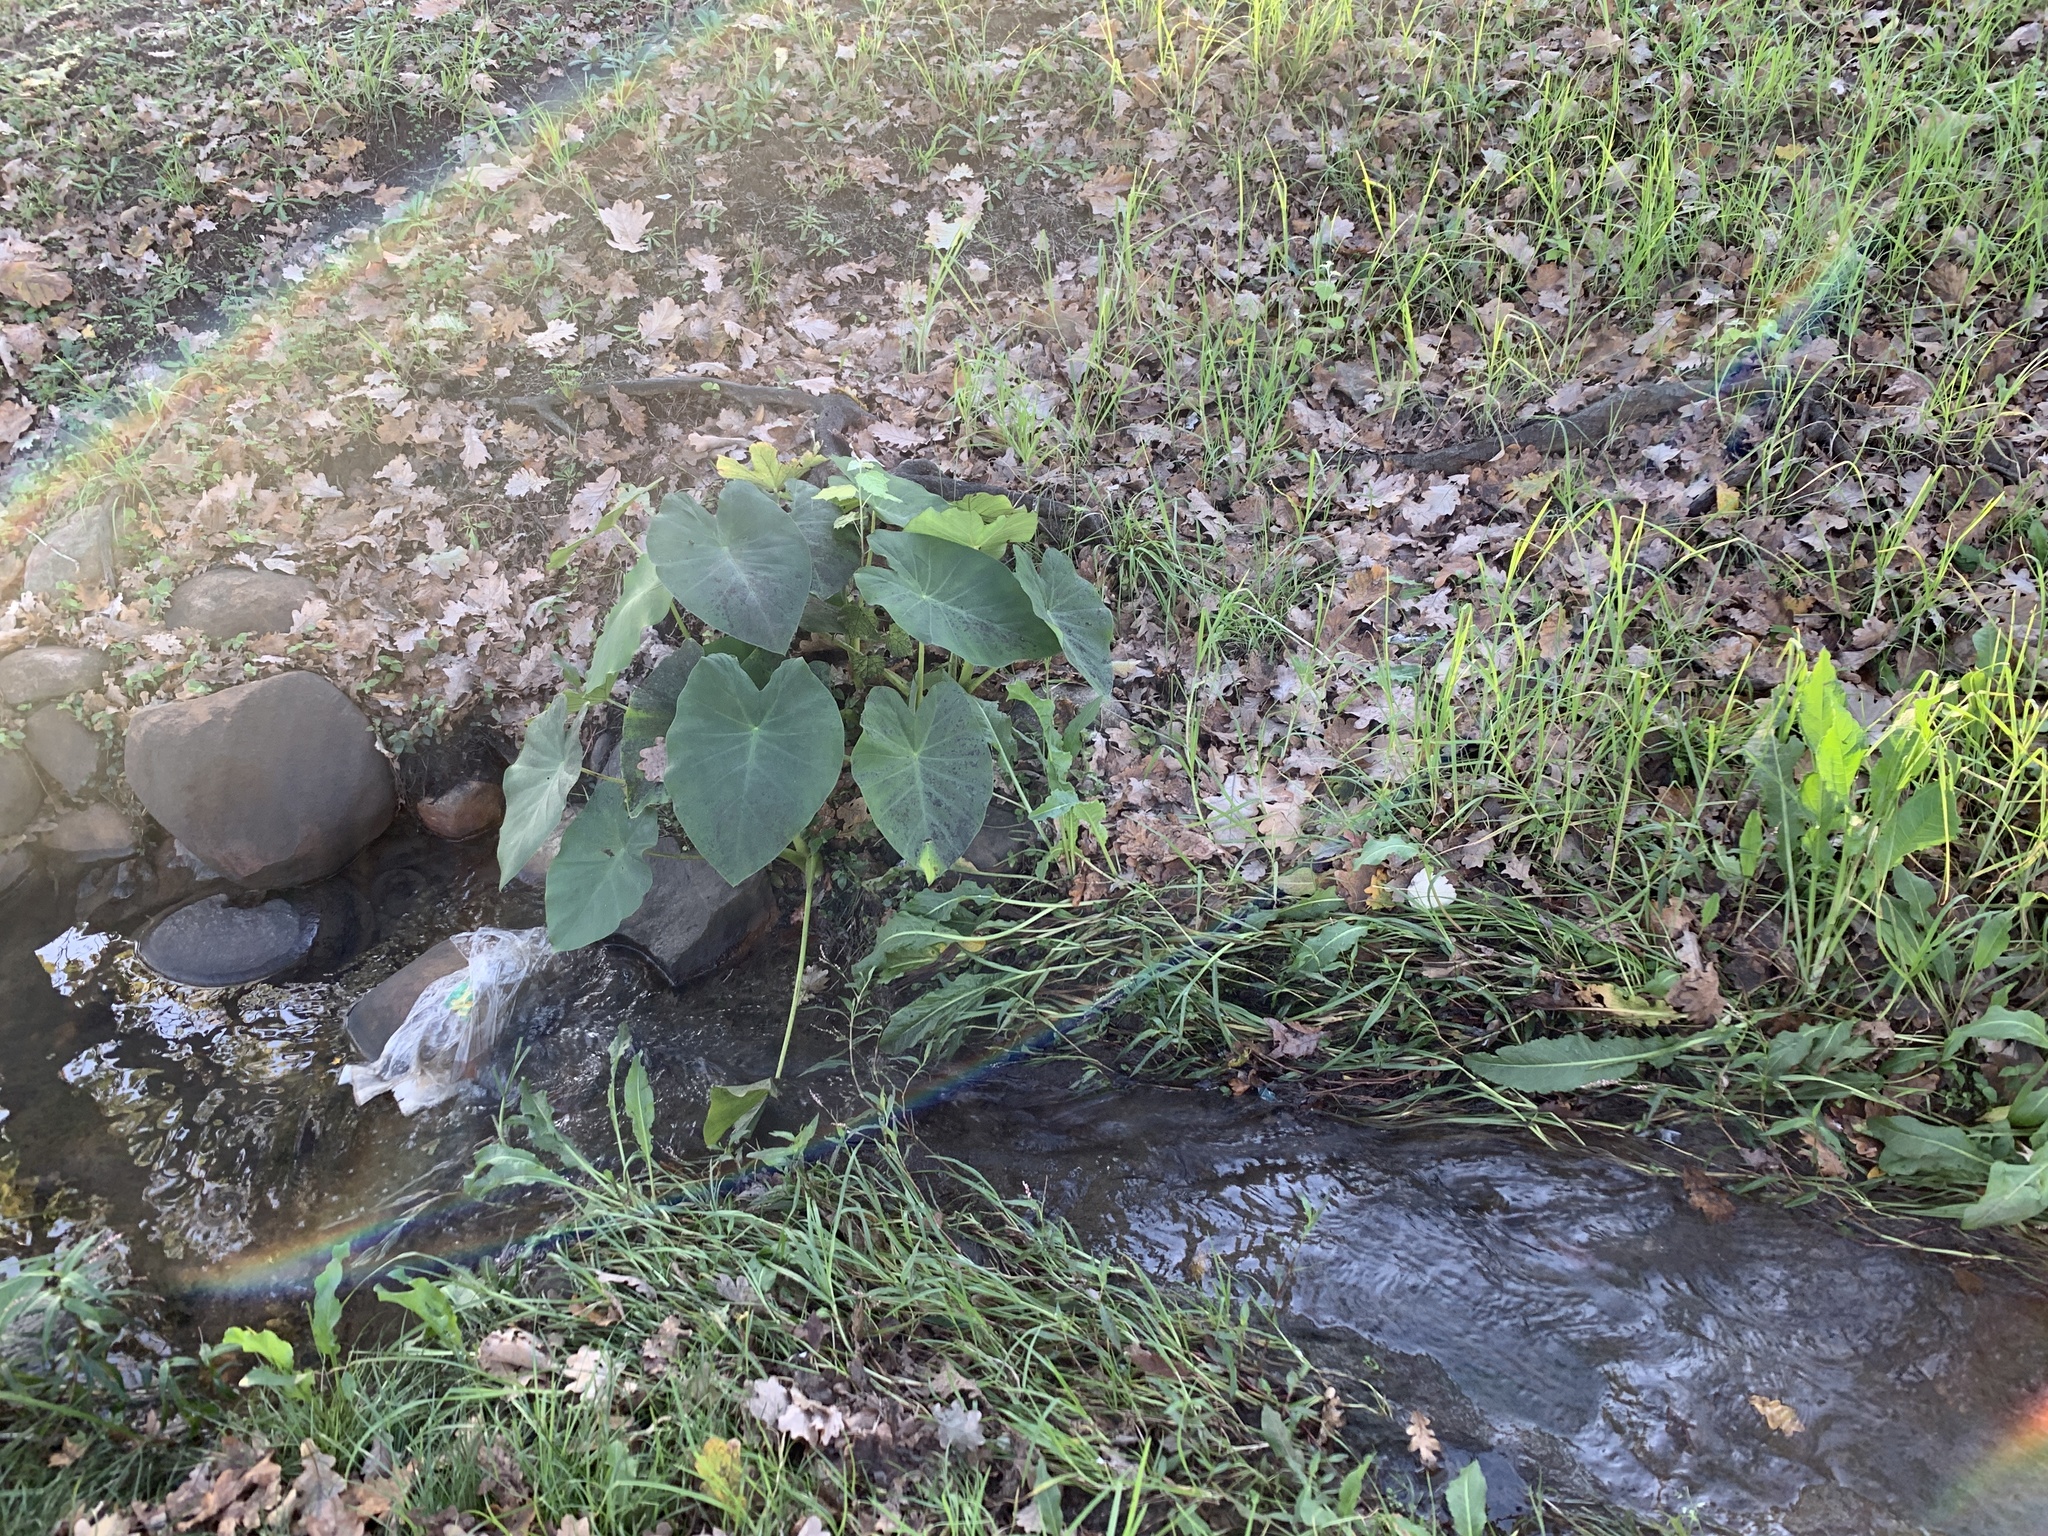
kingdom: Plantae
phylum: Tracheophyta
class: Liliopsida
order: Alismatales
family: Araceae
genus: Colocasia
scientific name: Colocasia esculenta
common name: Taro
